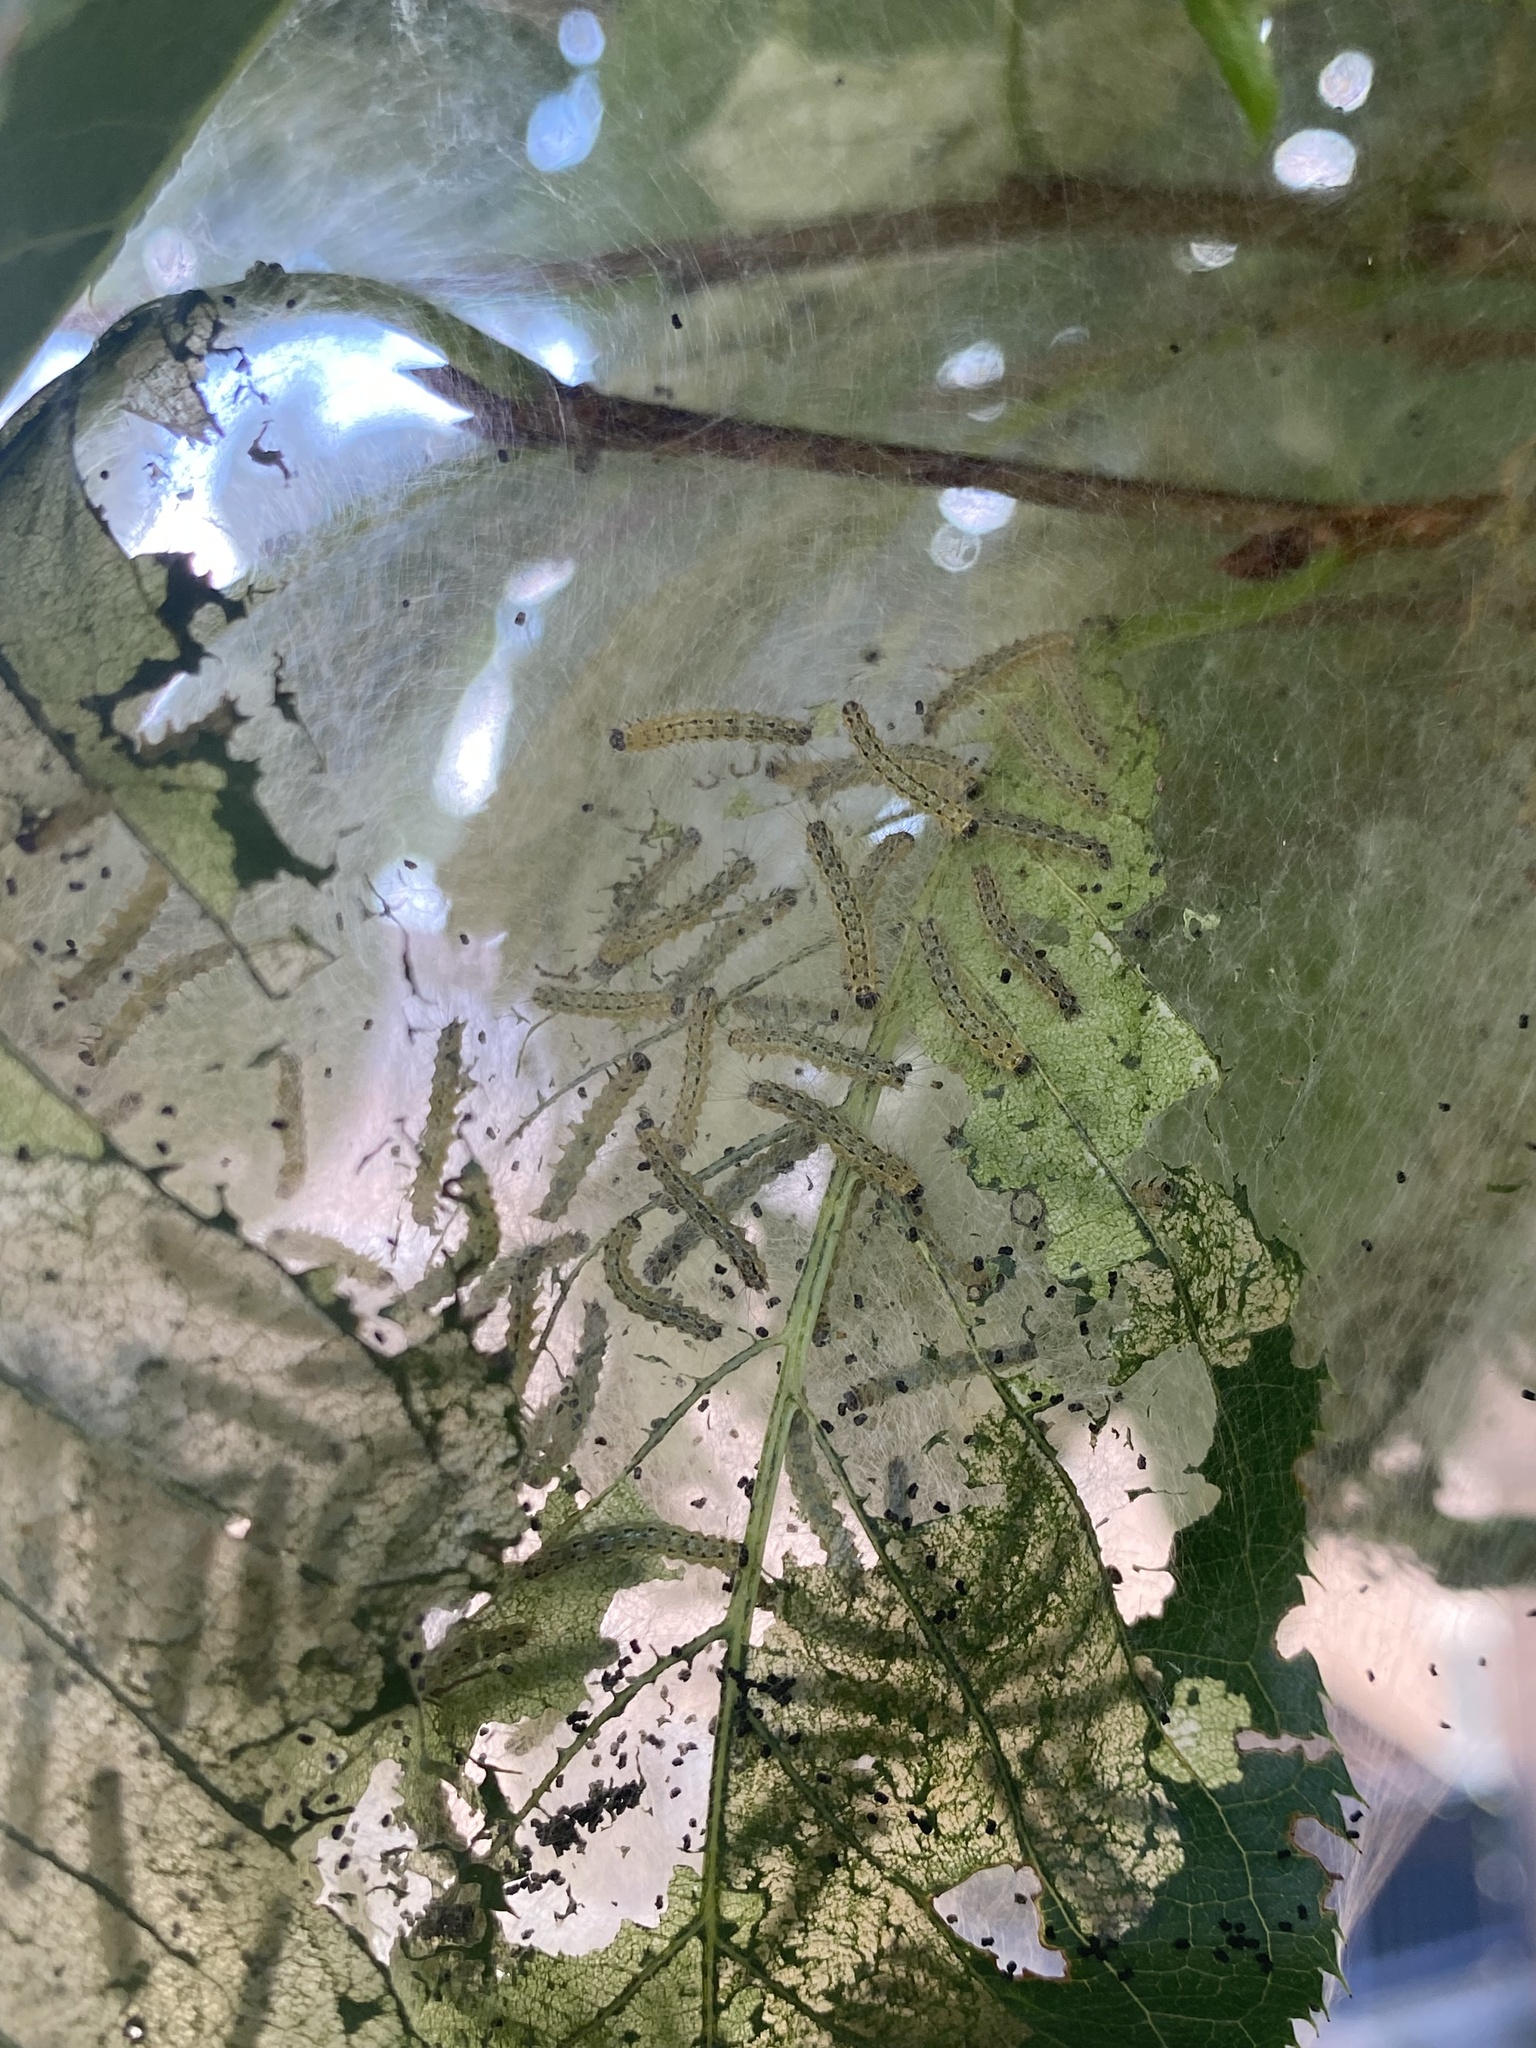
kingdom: Animalia
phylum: Arthropoda
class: Insecta
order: Lepidoptera
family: Erebidae
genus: Hyphantria
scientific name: Hyphantria cunea
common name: American white moth
